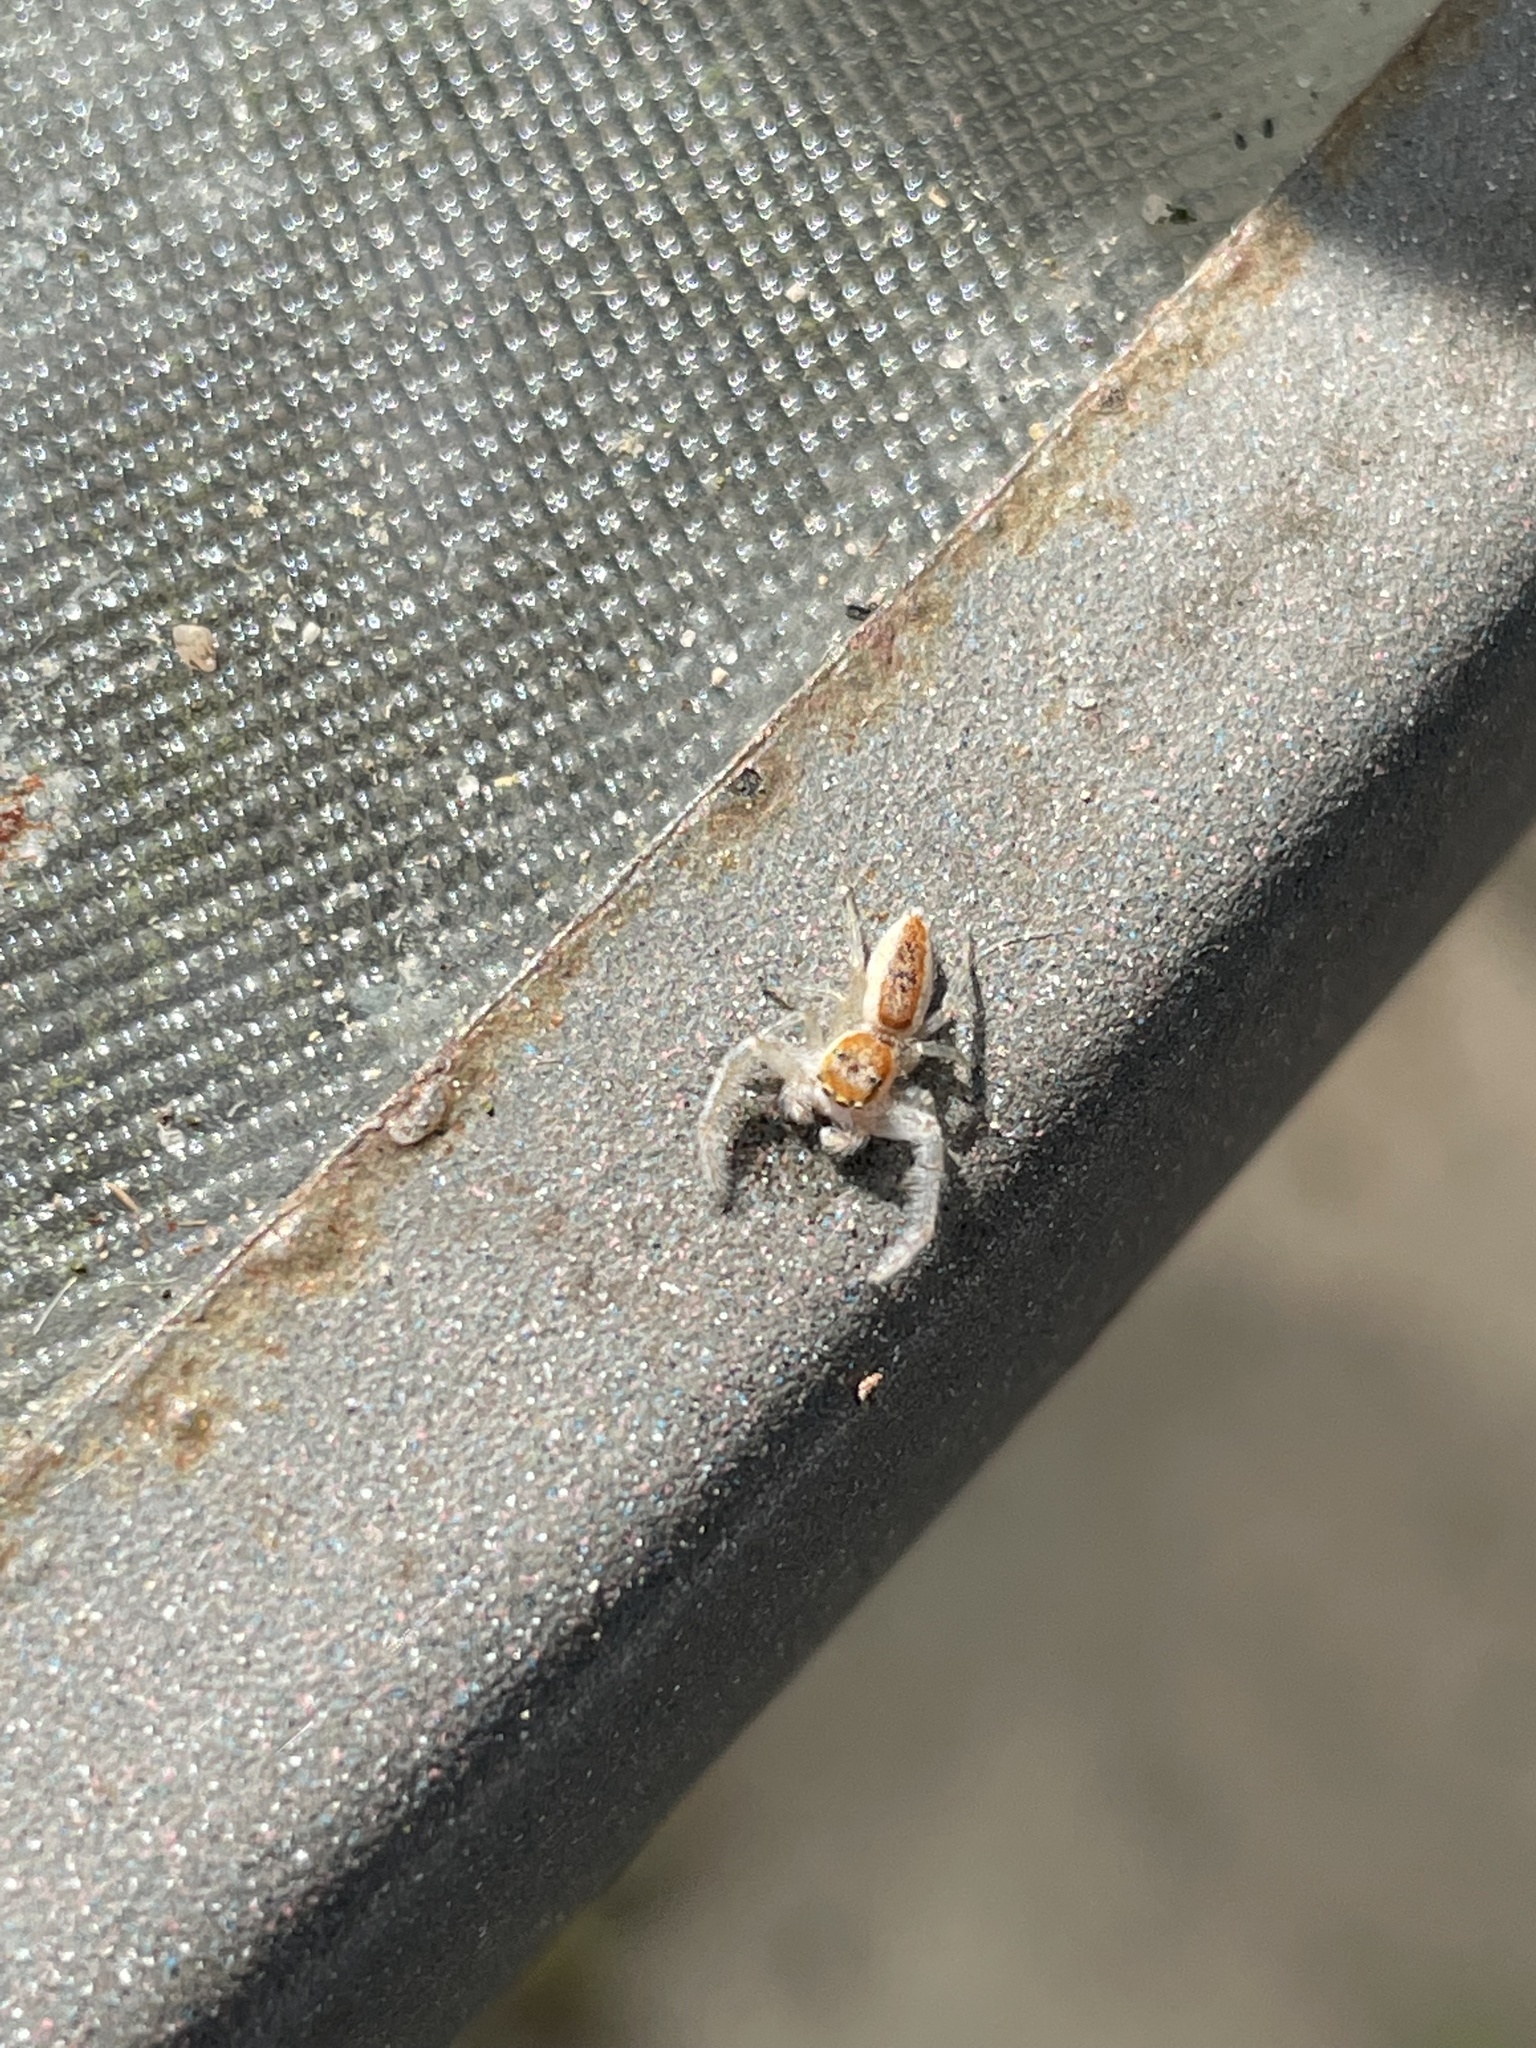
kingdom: Animalia
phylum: Arthropoda
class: Arachnida
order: Araneae
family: Salticidae
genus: Hentzia
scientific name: Hentzia mitrata
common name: White-jawed jumping spider
